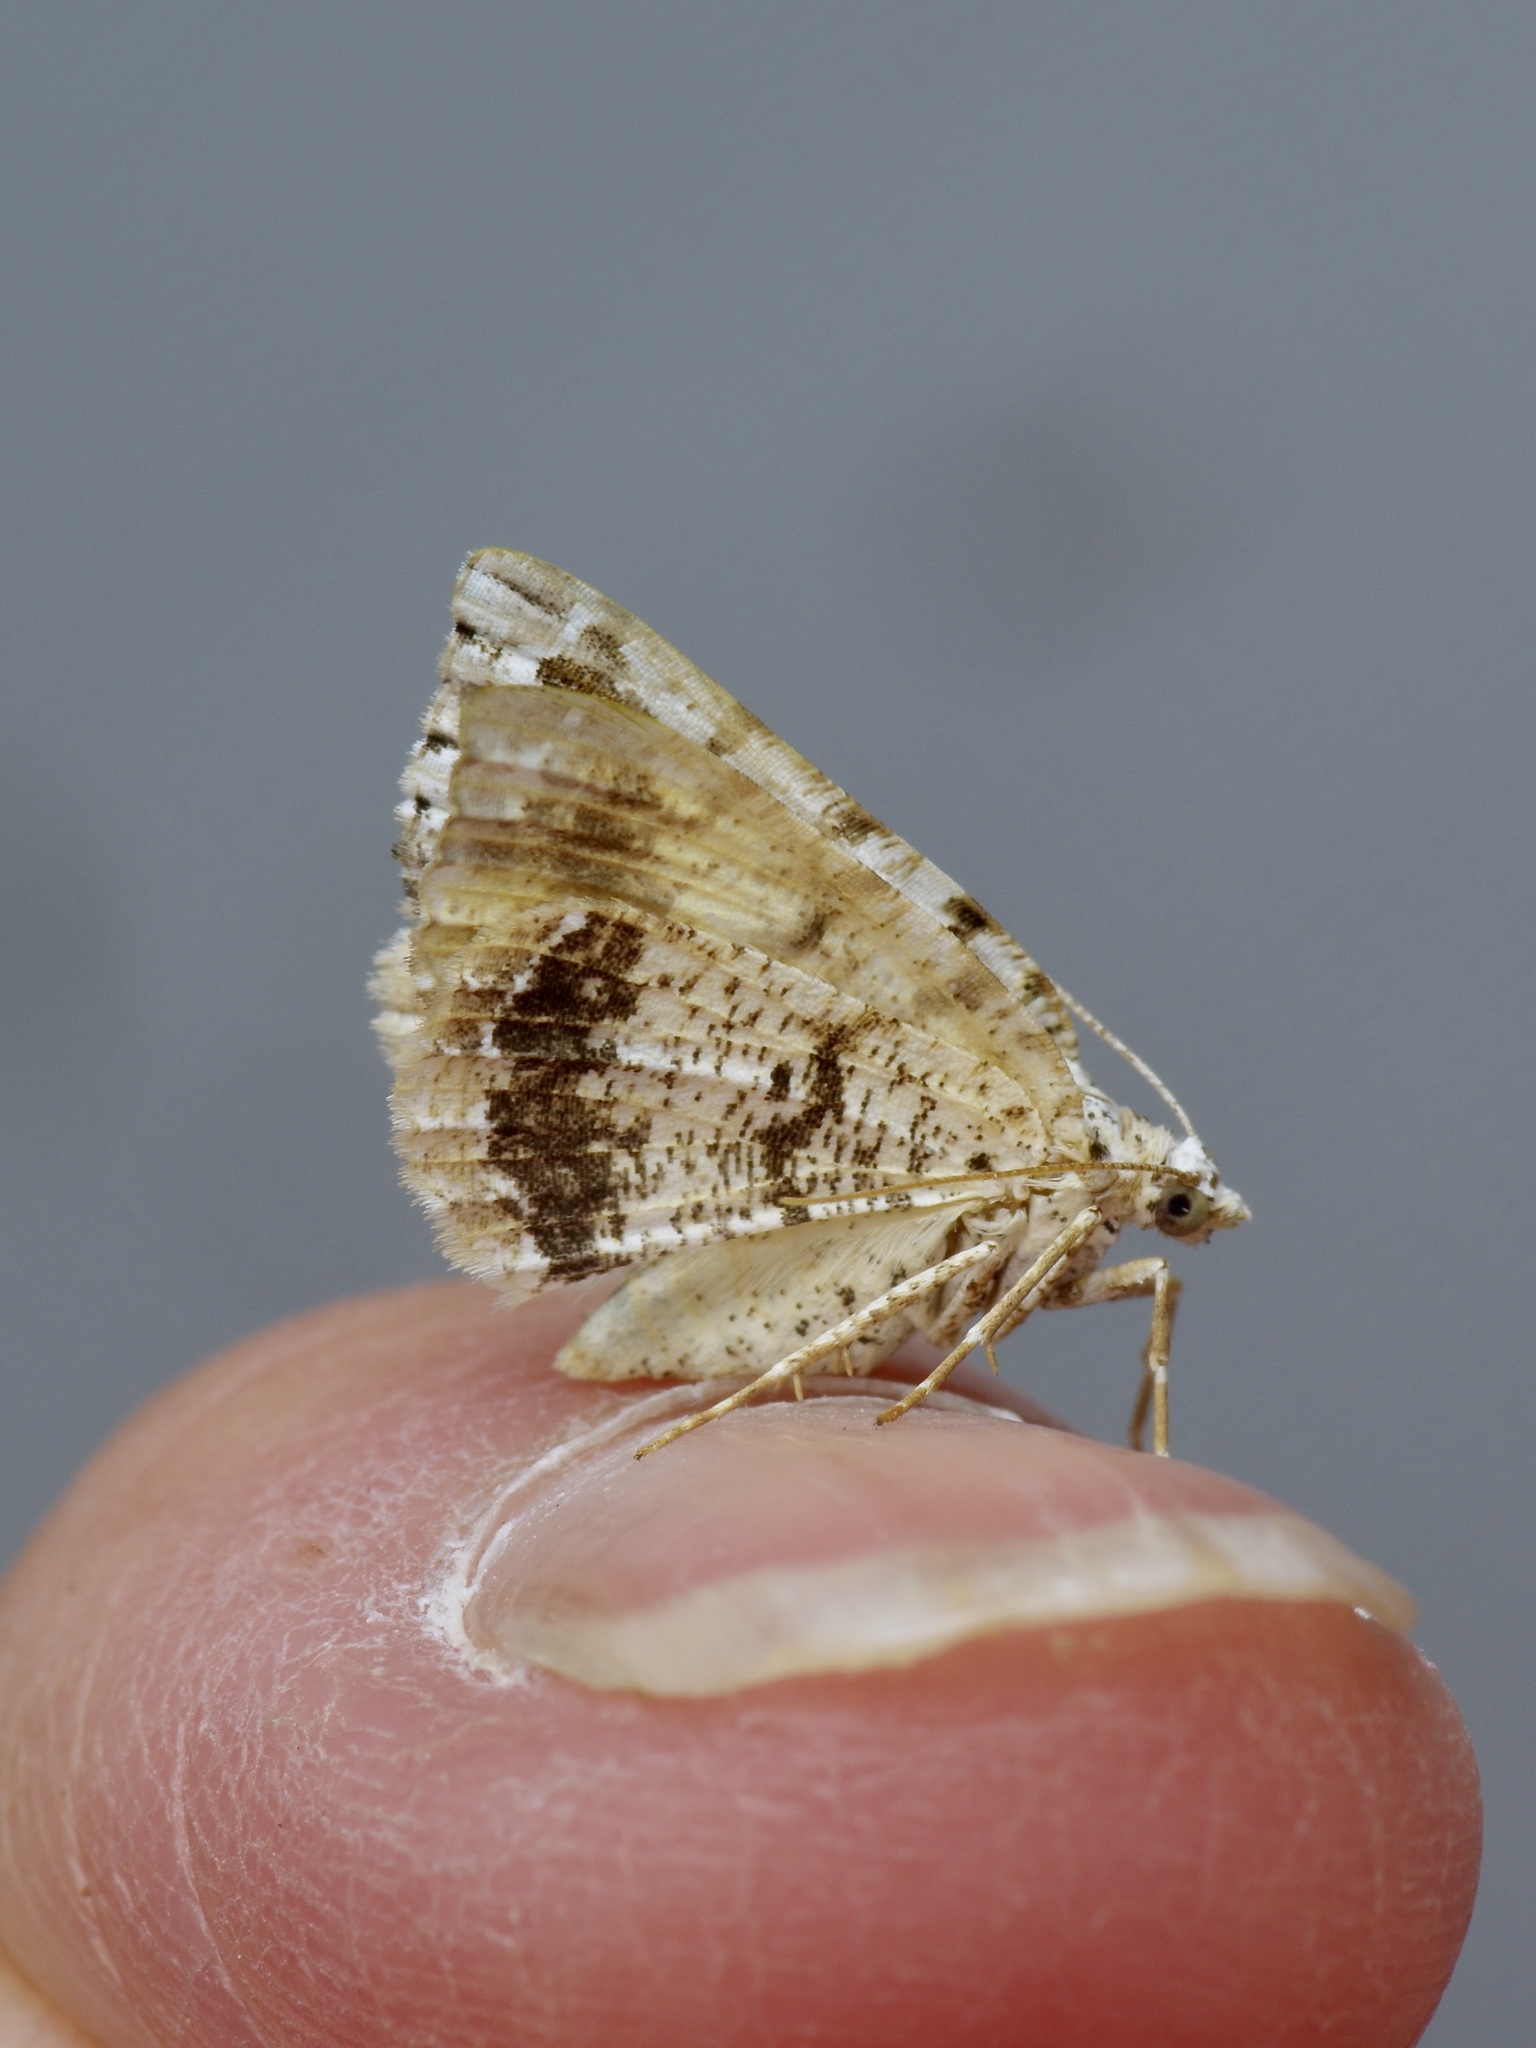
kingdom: Animalia
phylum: Arthropoda
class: Insecta
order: Lepidoptera
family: Geometridae
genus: Macaria
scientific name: Macaria graphidaria
